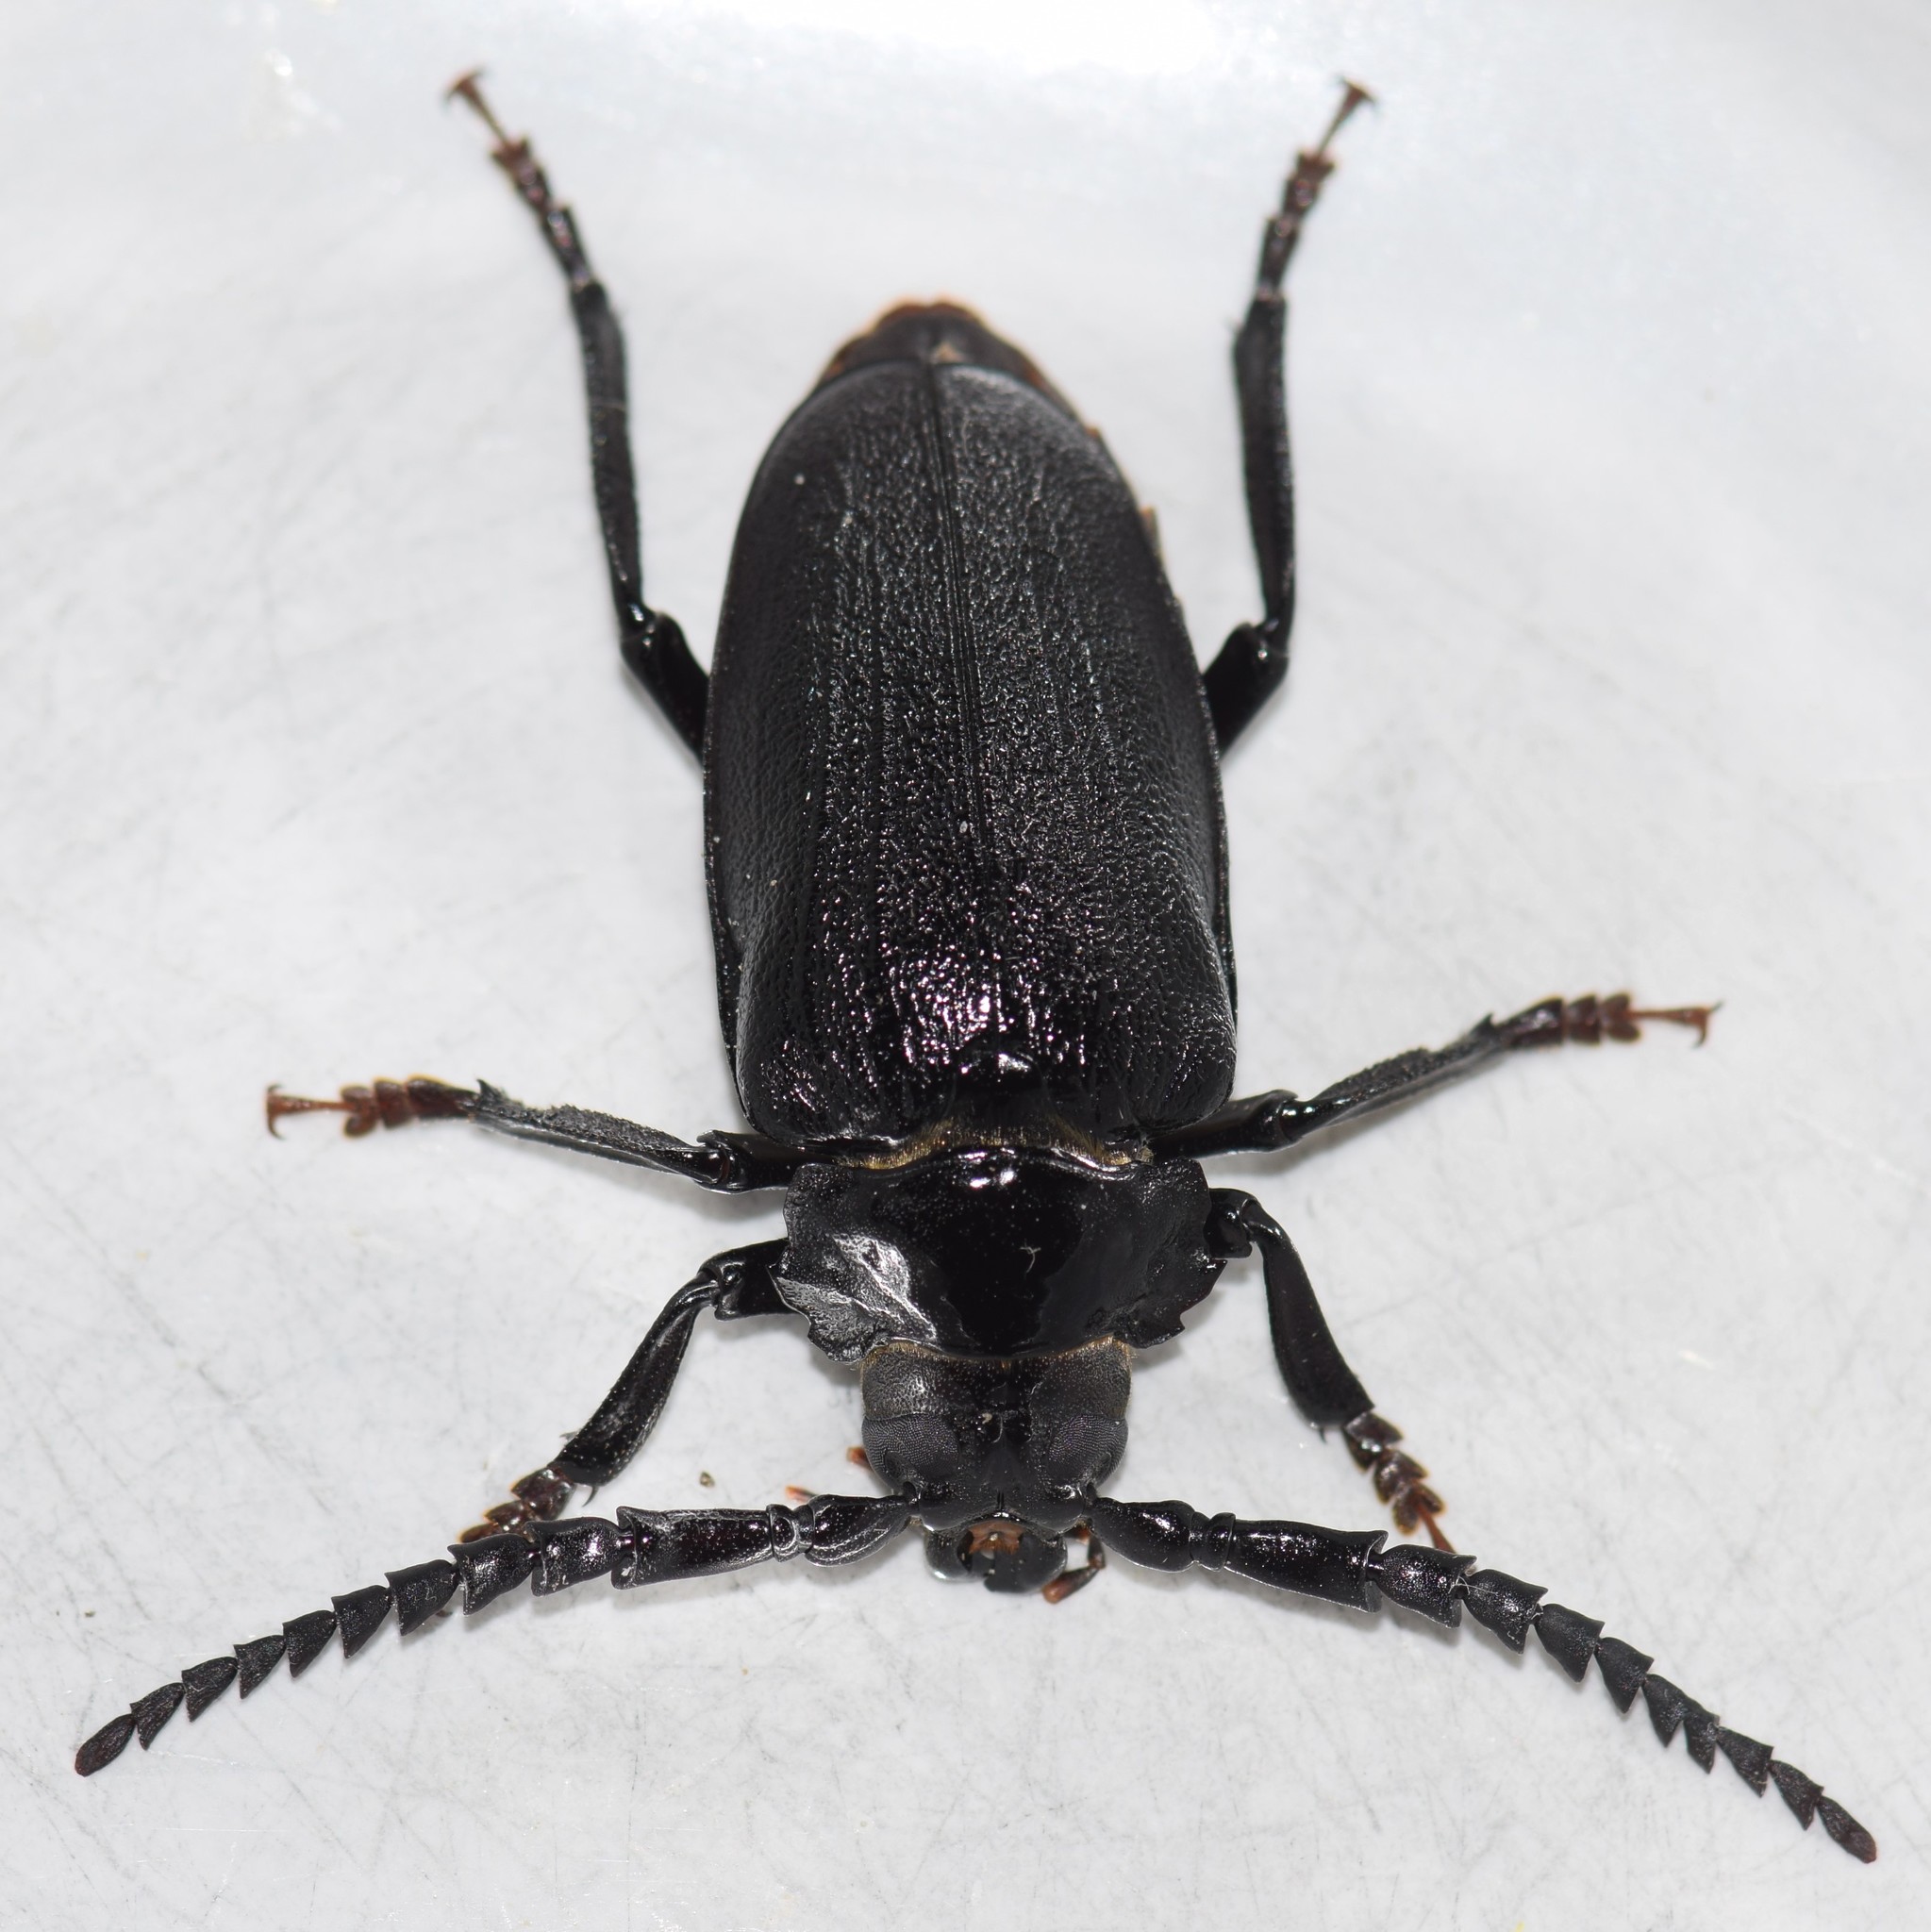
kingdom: Animalia
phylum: Arthropoda
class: Insecta
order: Coleoptera
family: Cerambycidae
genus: Prionus
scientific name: Prionus laticollis
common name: Broad necked prionus
